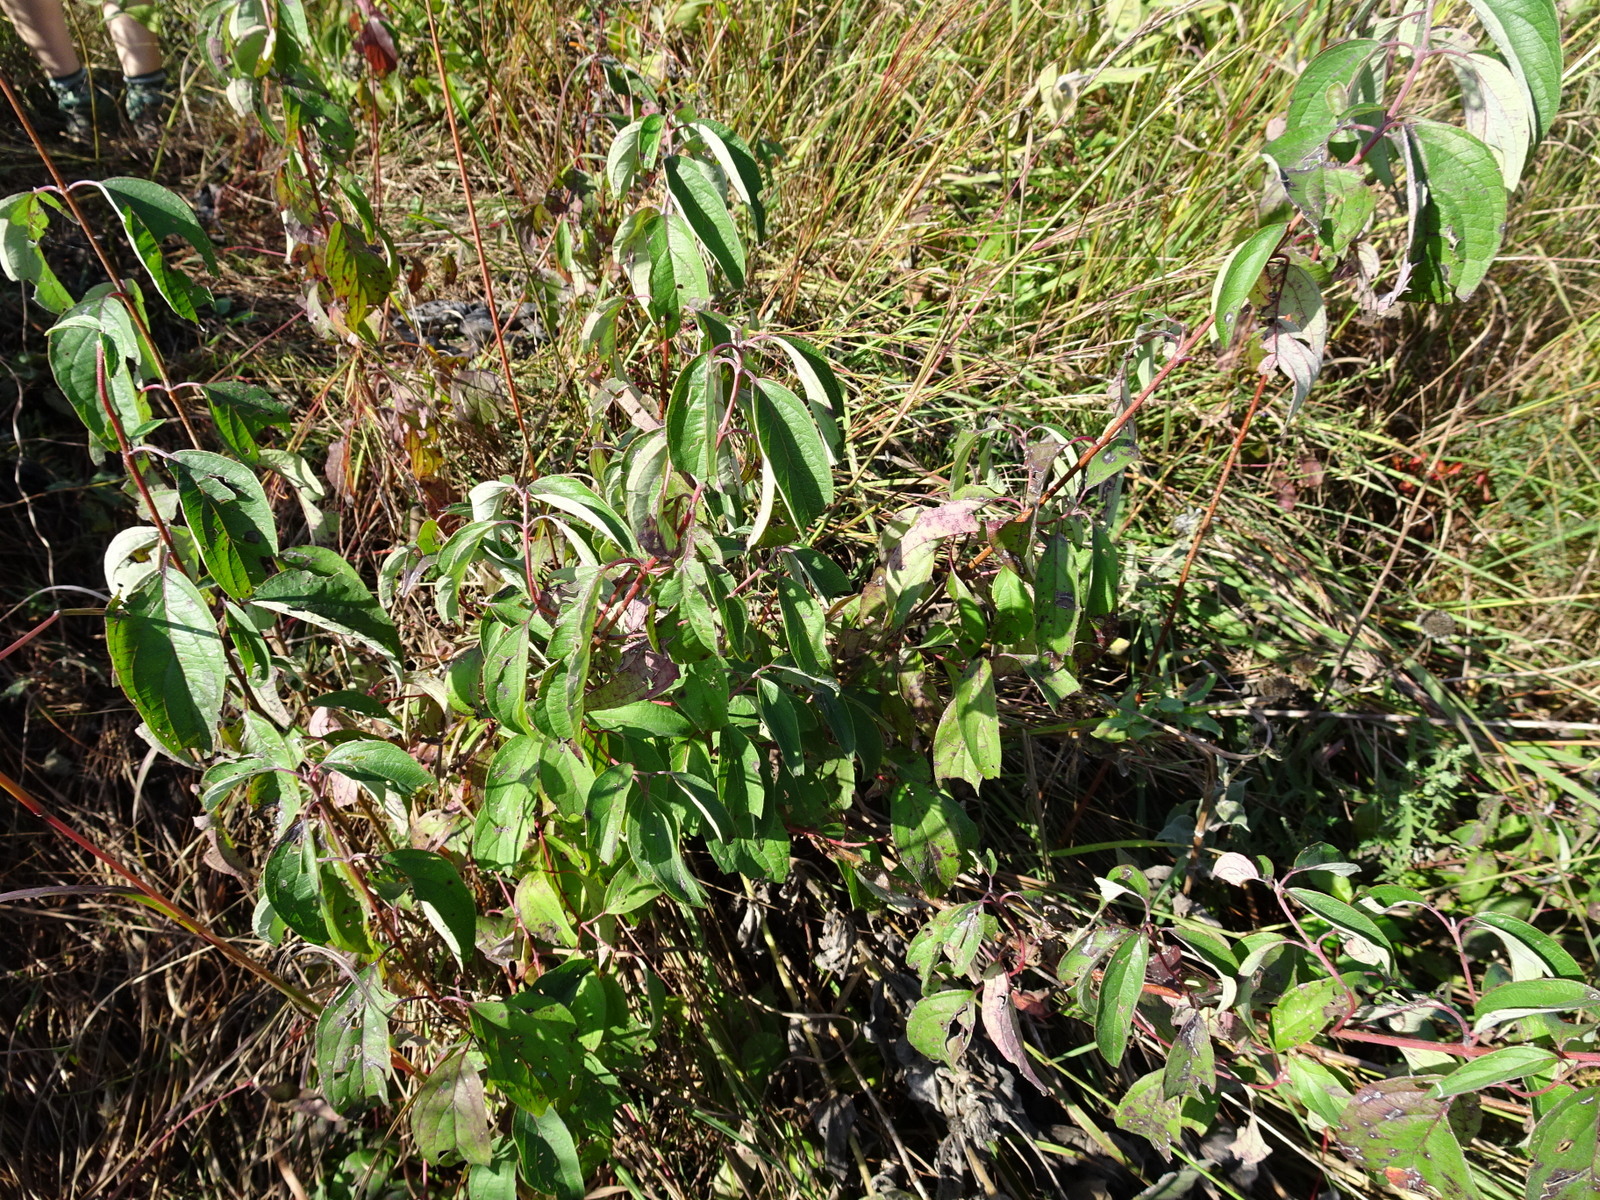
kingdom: Plantae
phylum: Tracheophyta
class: Magnoliopsida
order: Cornales
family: Cornaceae
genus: Cornus
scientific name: Cornus drummondii
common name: Rough-leaf dogwood
